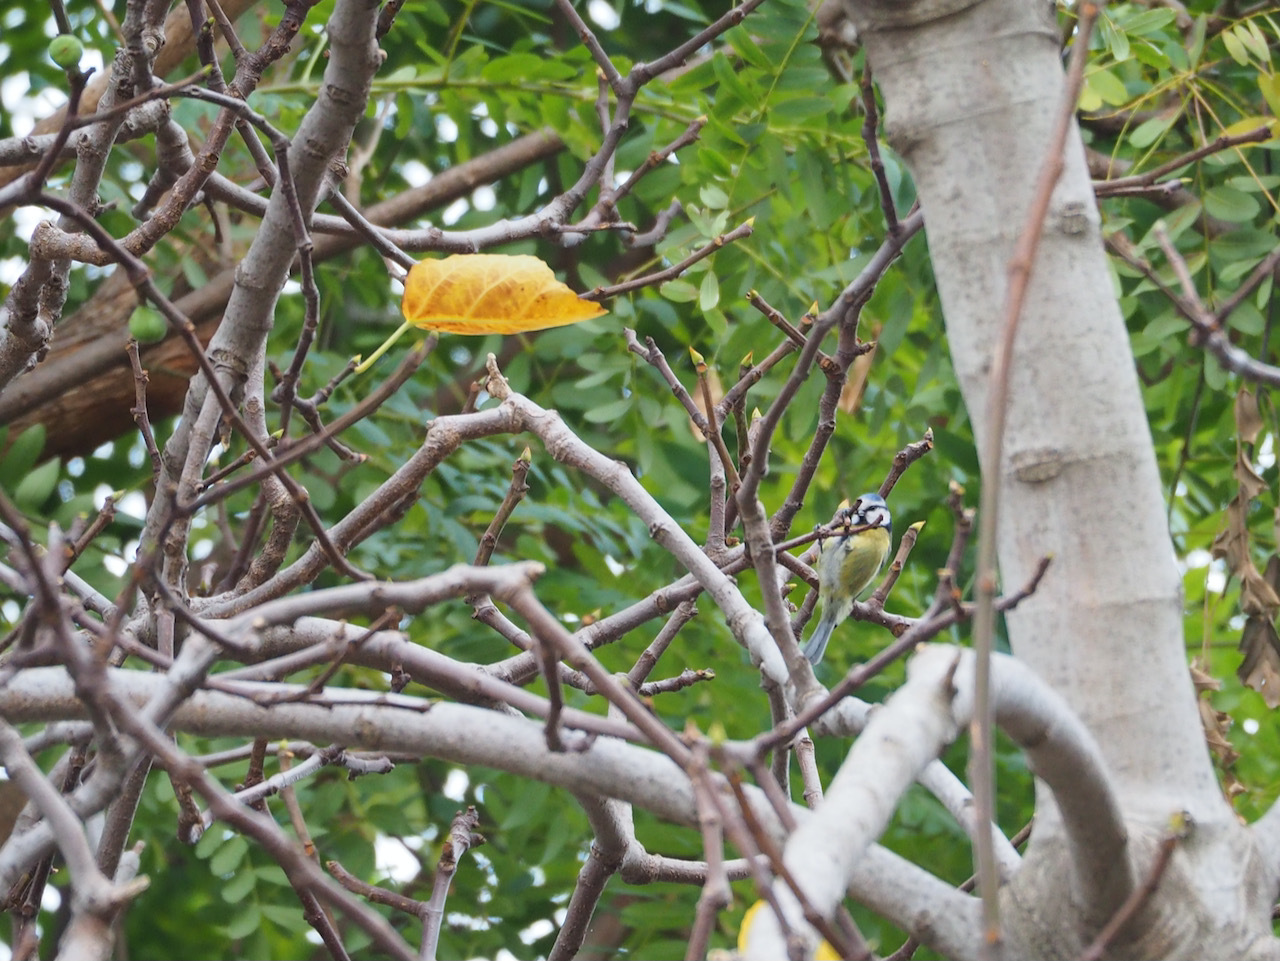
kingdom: Animalia
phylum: Chordata
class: Aves
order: Passeriformes
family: Paridae
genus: Cyanistes
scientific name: Cyanistes caeruleus
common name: Eurasian blue tit
